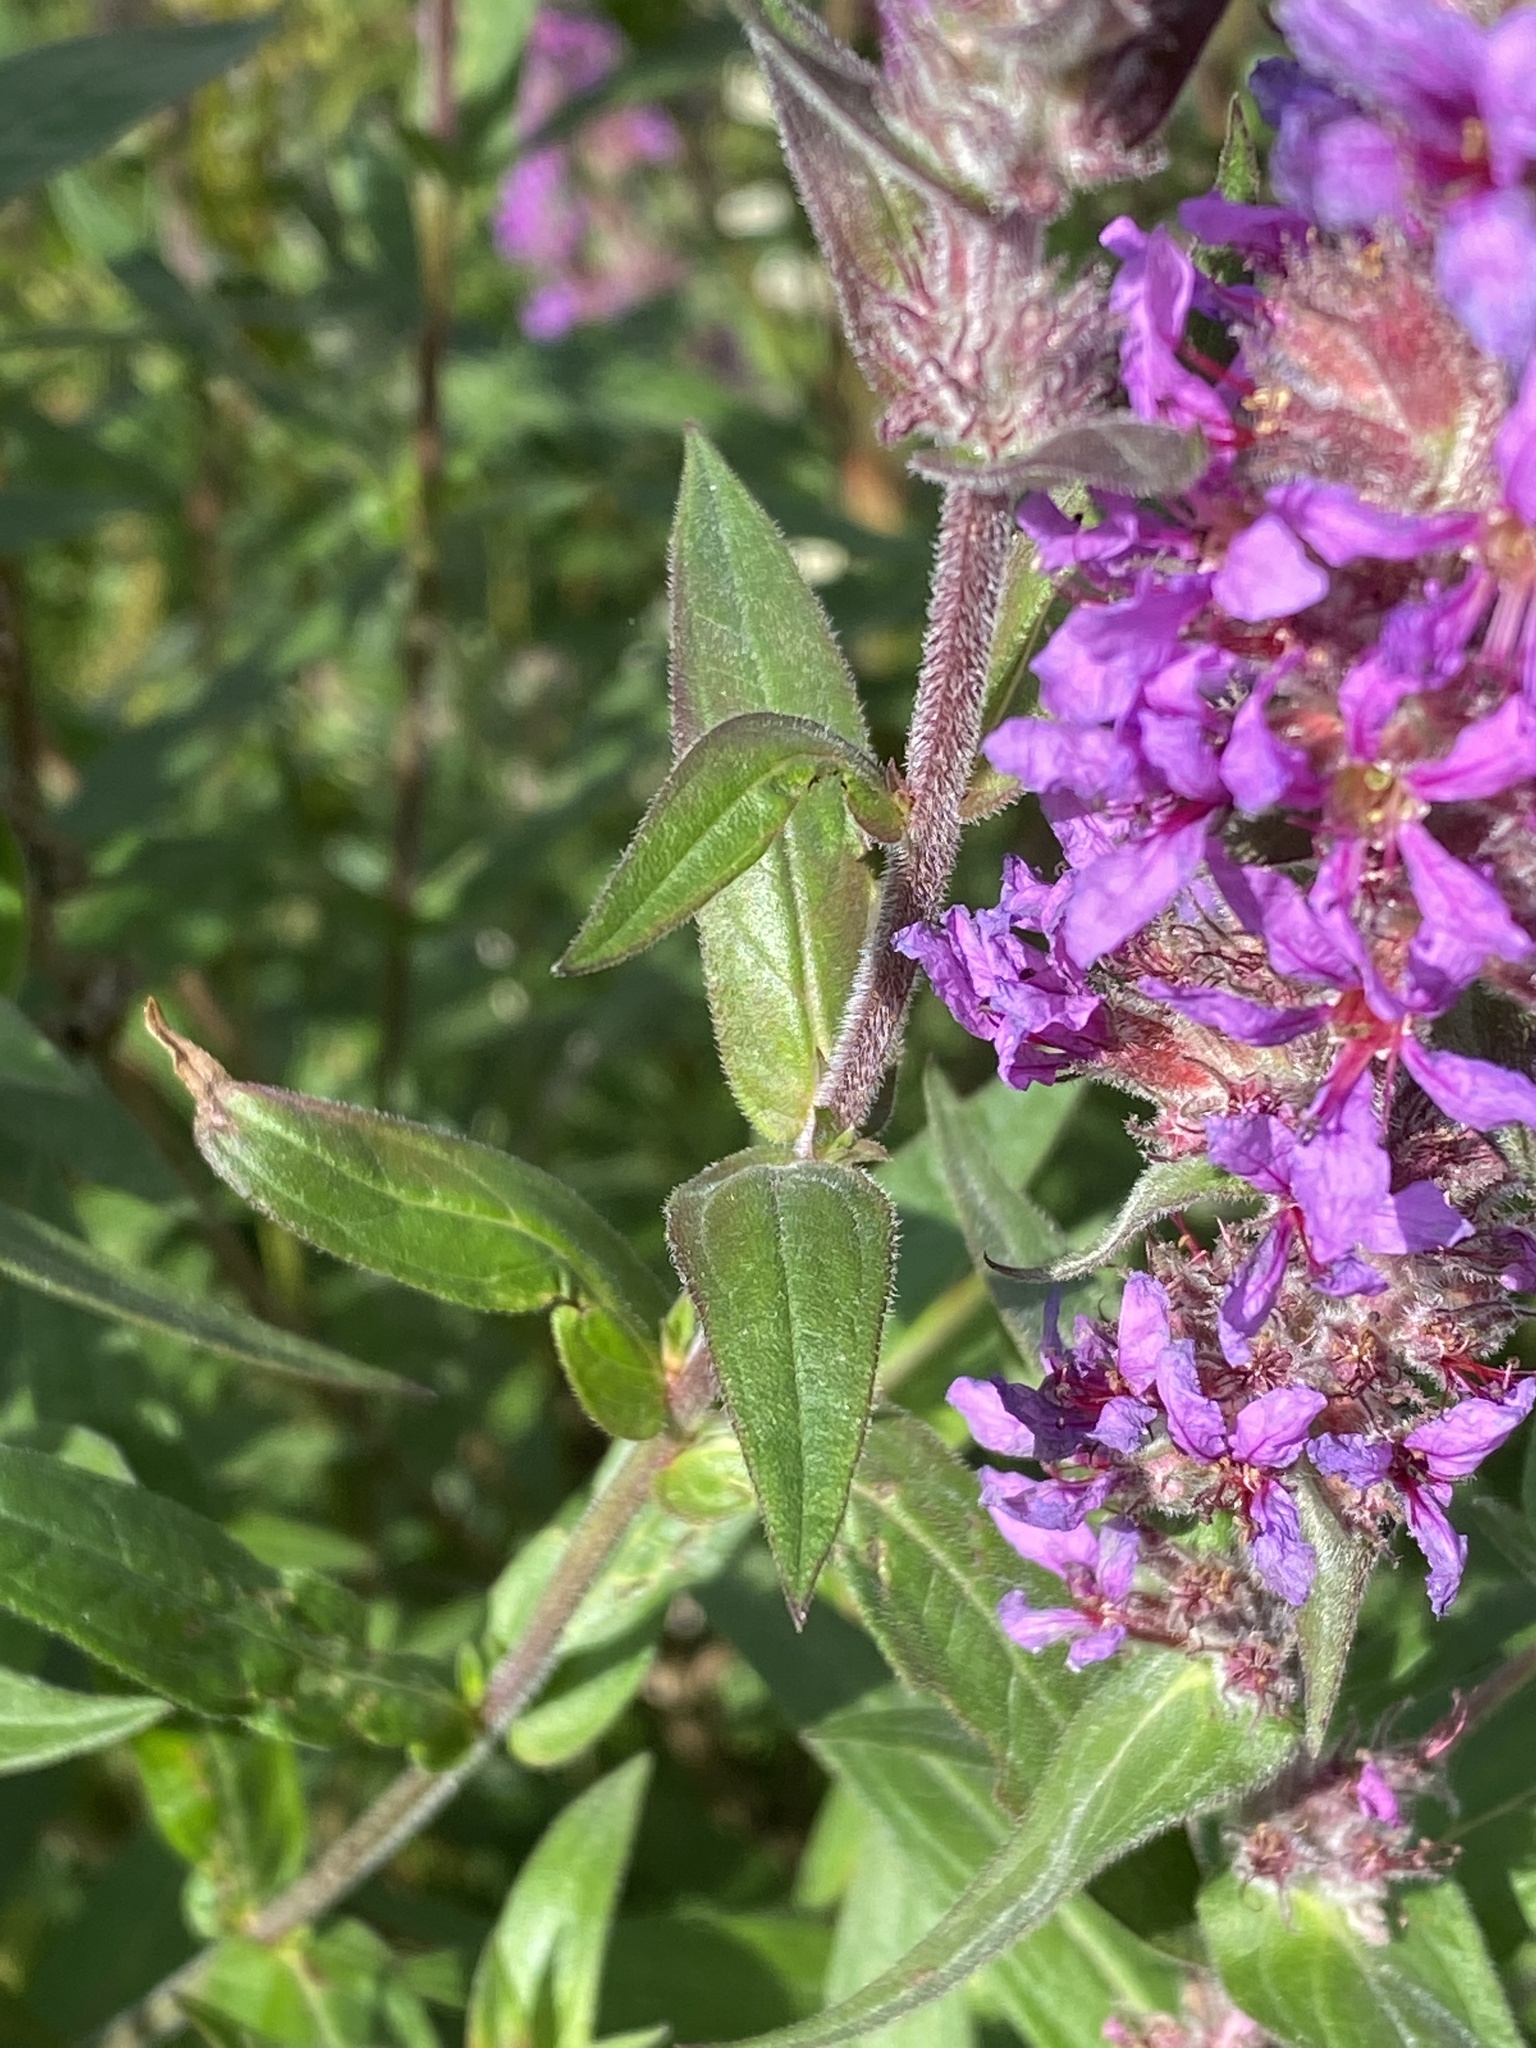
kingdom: Plantae
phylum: Tracheophyta
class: Magnoliopsida
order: Myrtales
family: Lythraceae
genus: Lythrum
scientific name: Lythrum salicaria
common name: Purple loosestrife
